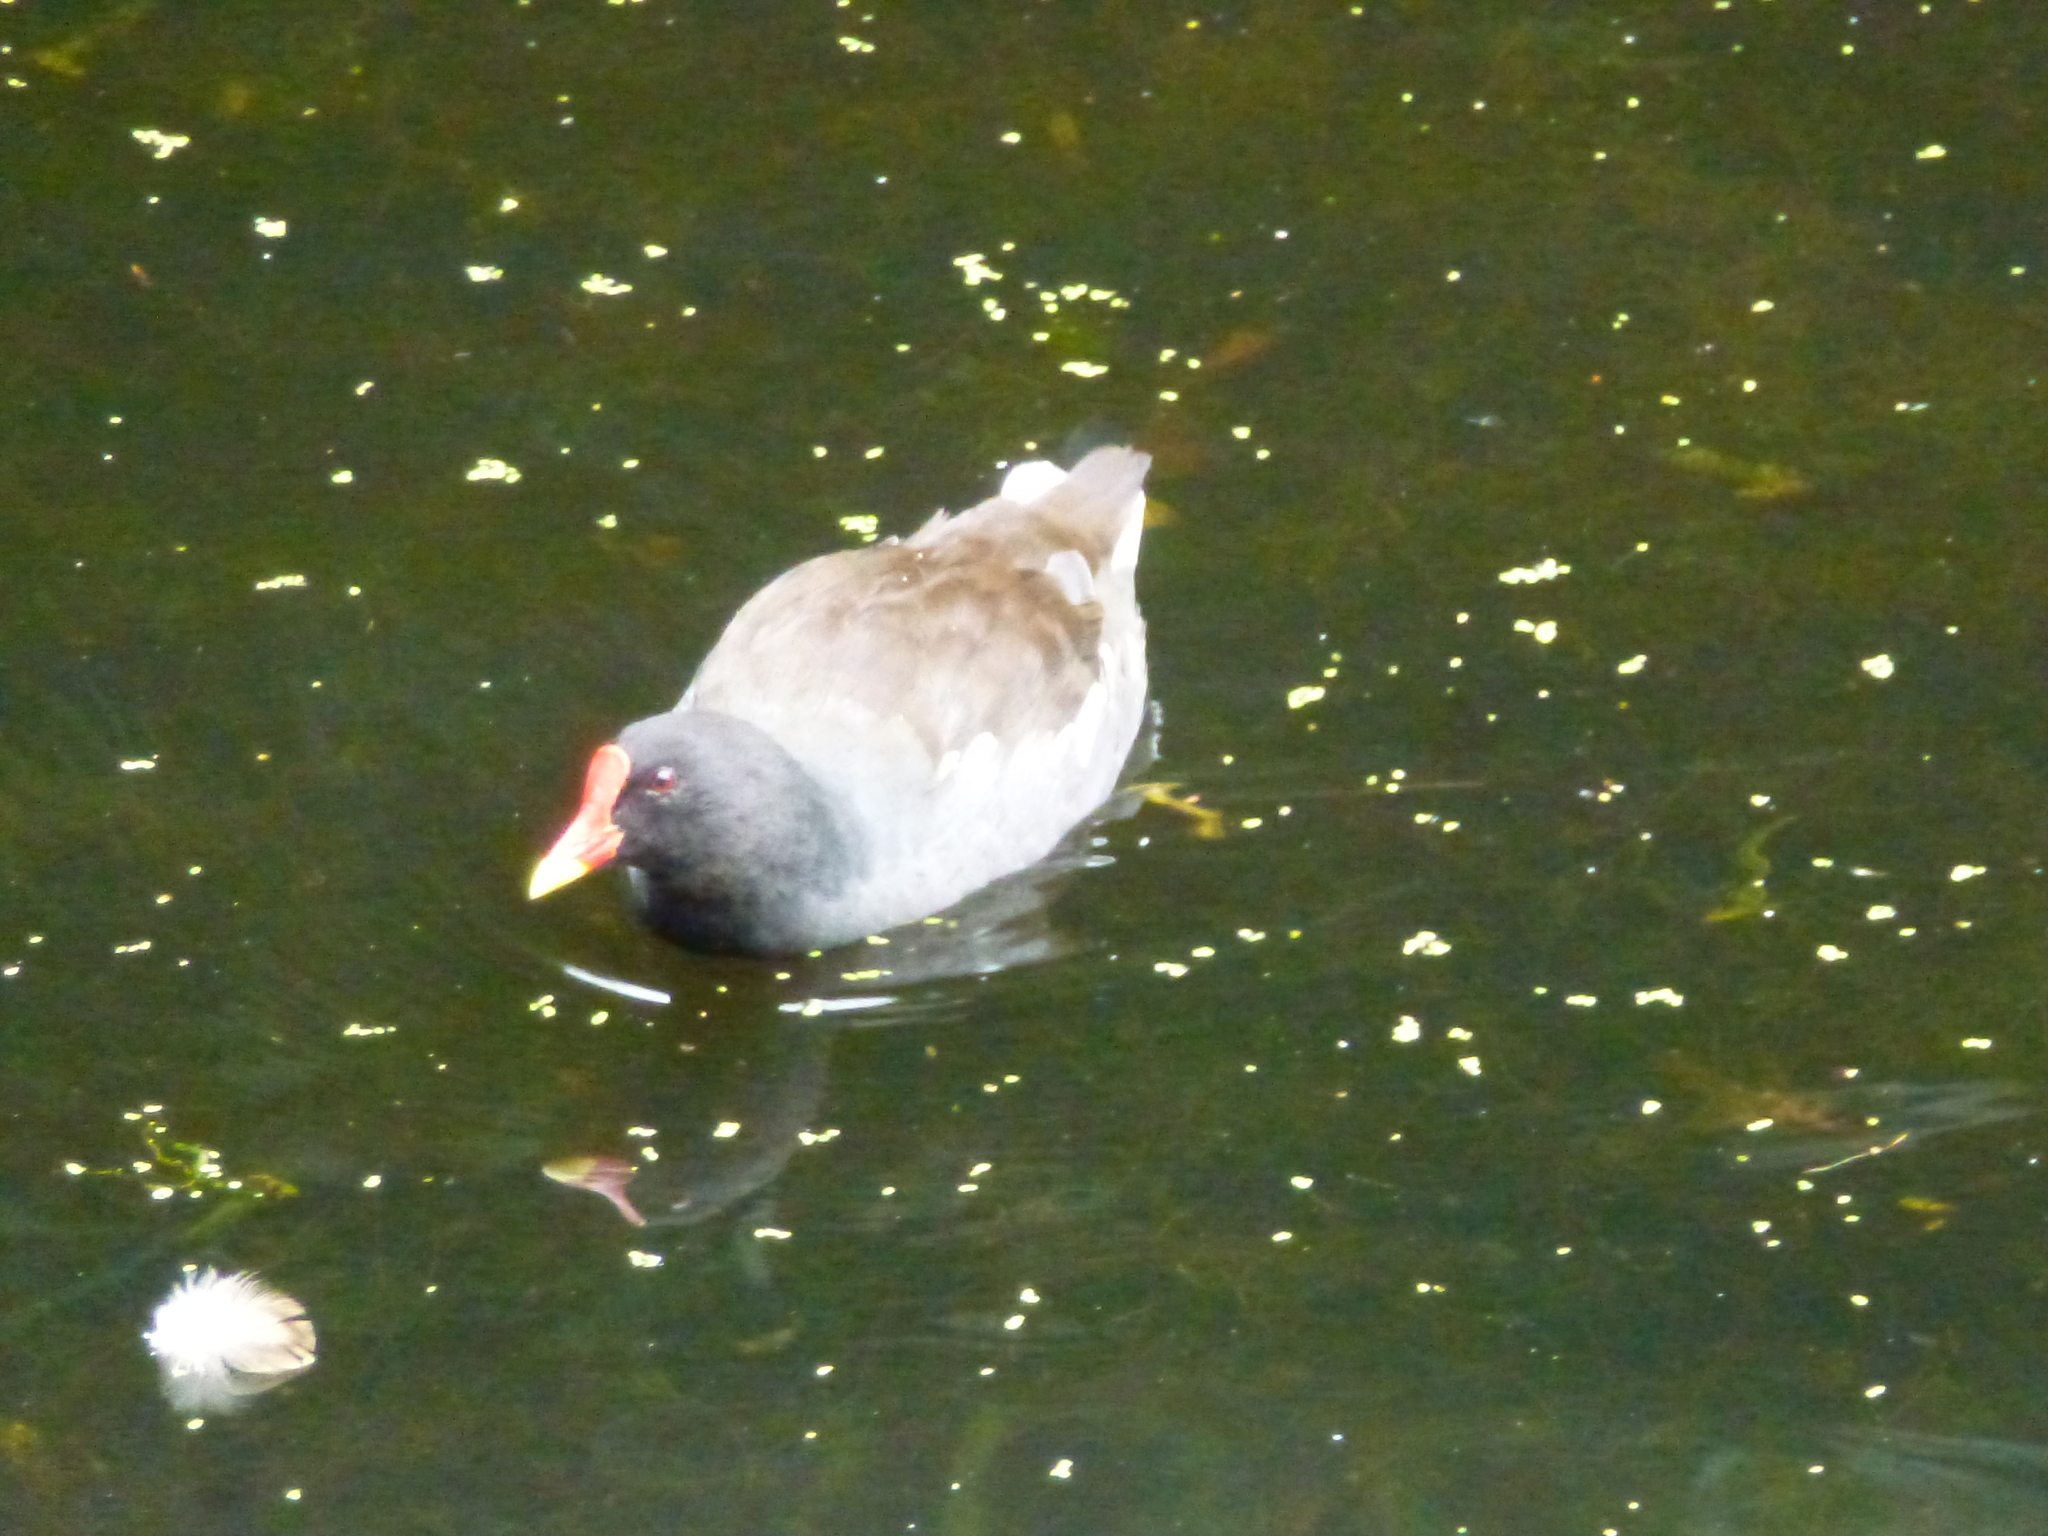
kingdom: Animalia
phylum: Chordata
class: Aves
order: Gruiformes
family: Rallidae
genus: Gallinula
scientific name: Gallinula chloropus
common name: Common moorhen
